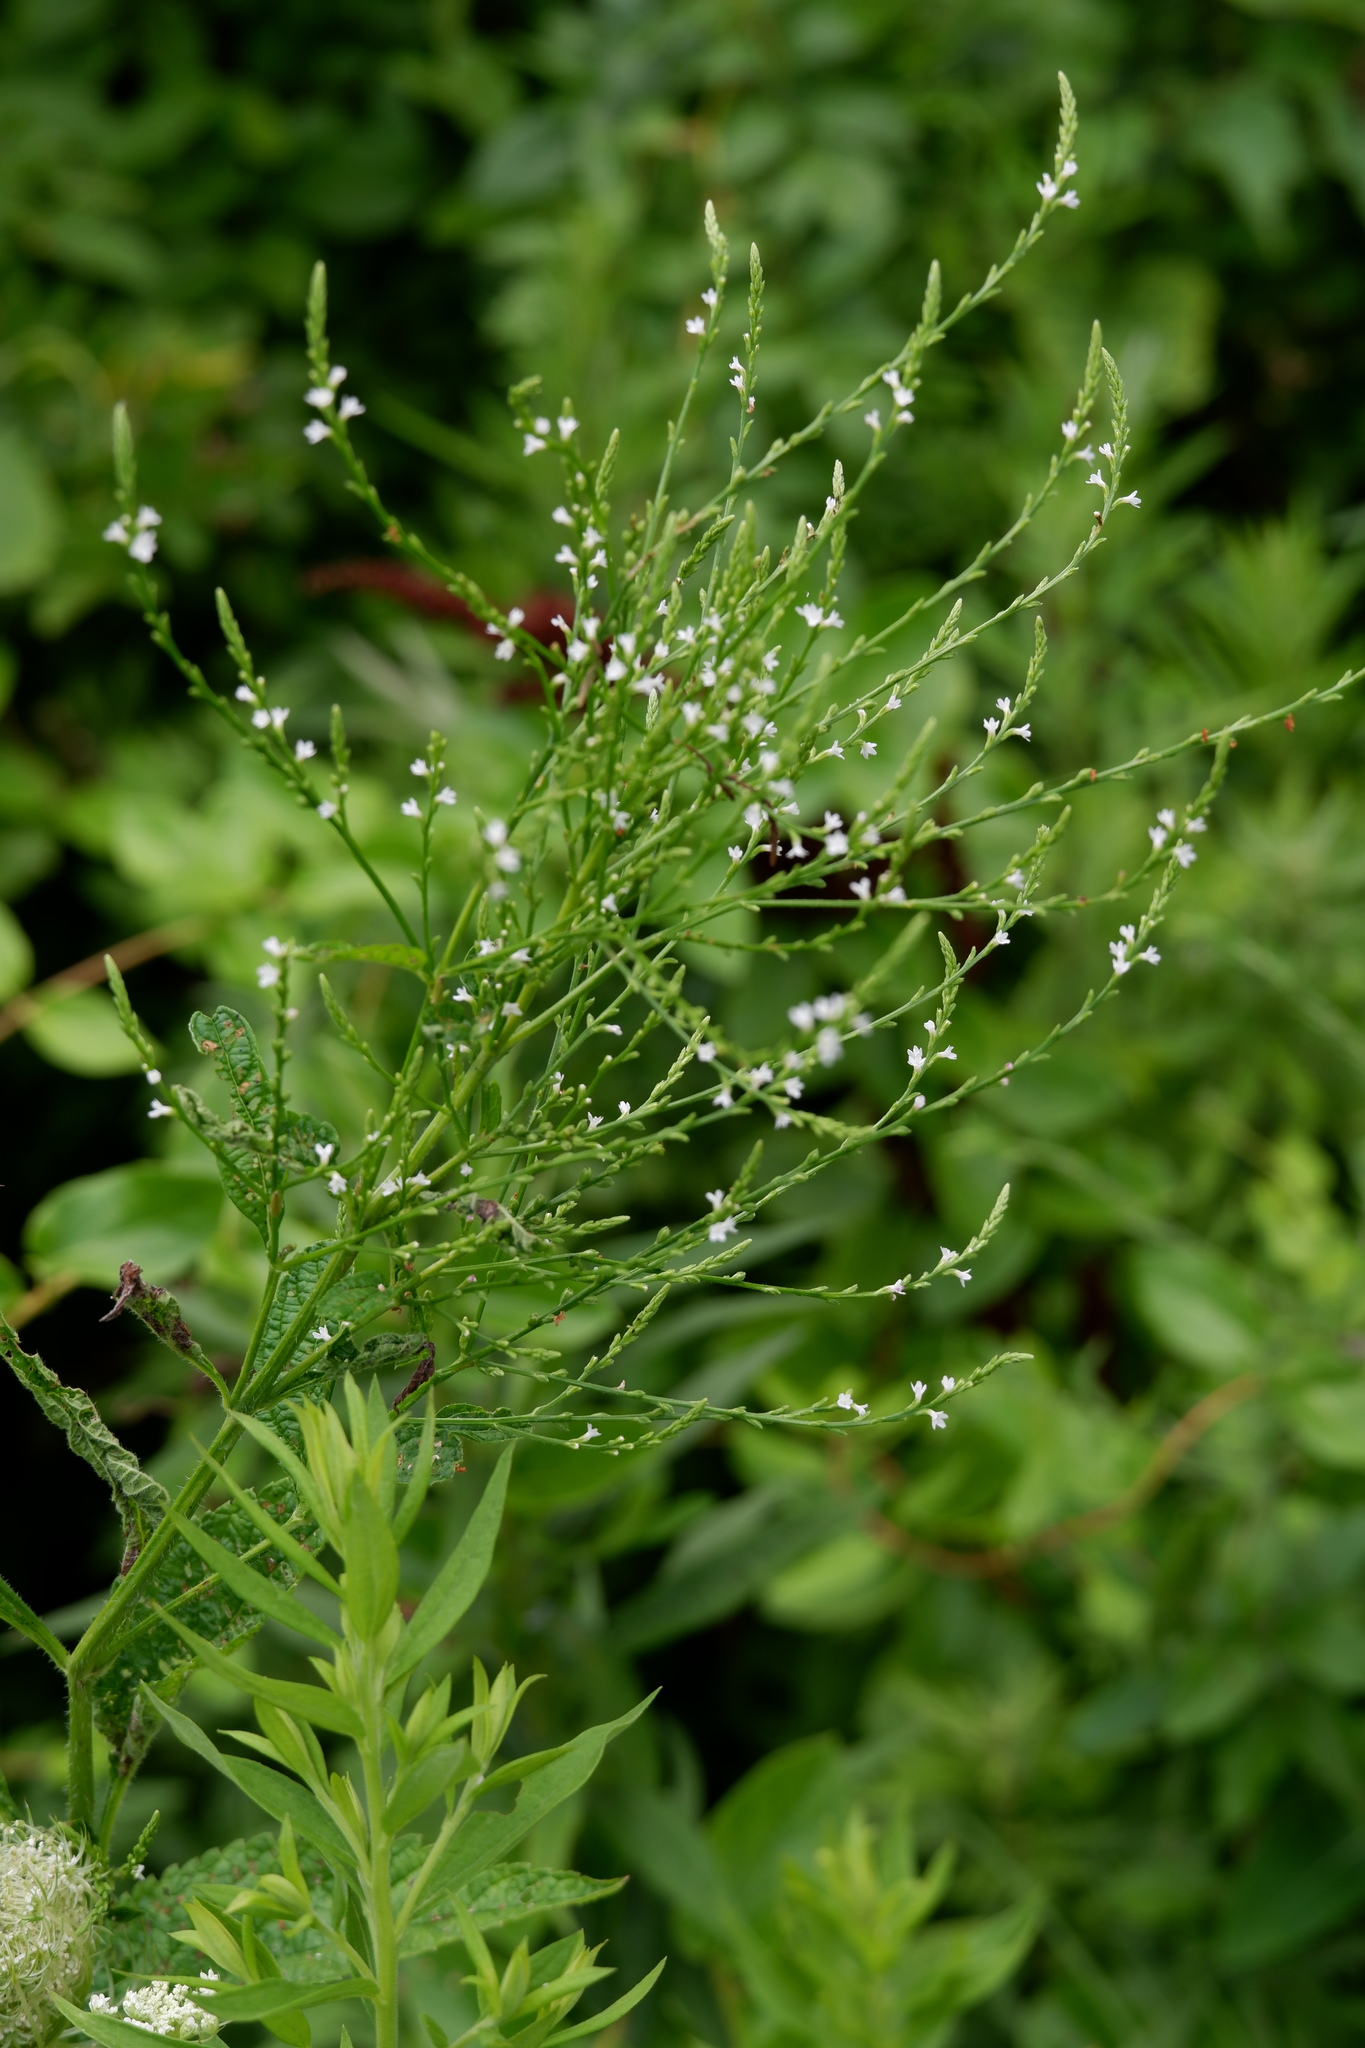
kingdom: Plantae
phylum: Tracheophyta
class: Magnoliopsida
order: Lamiales
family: Verbenaceae
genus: Verbena
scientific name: Verbena urticifolia
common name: Nettle-leaved vervain
